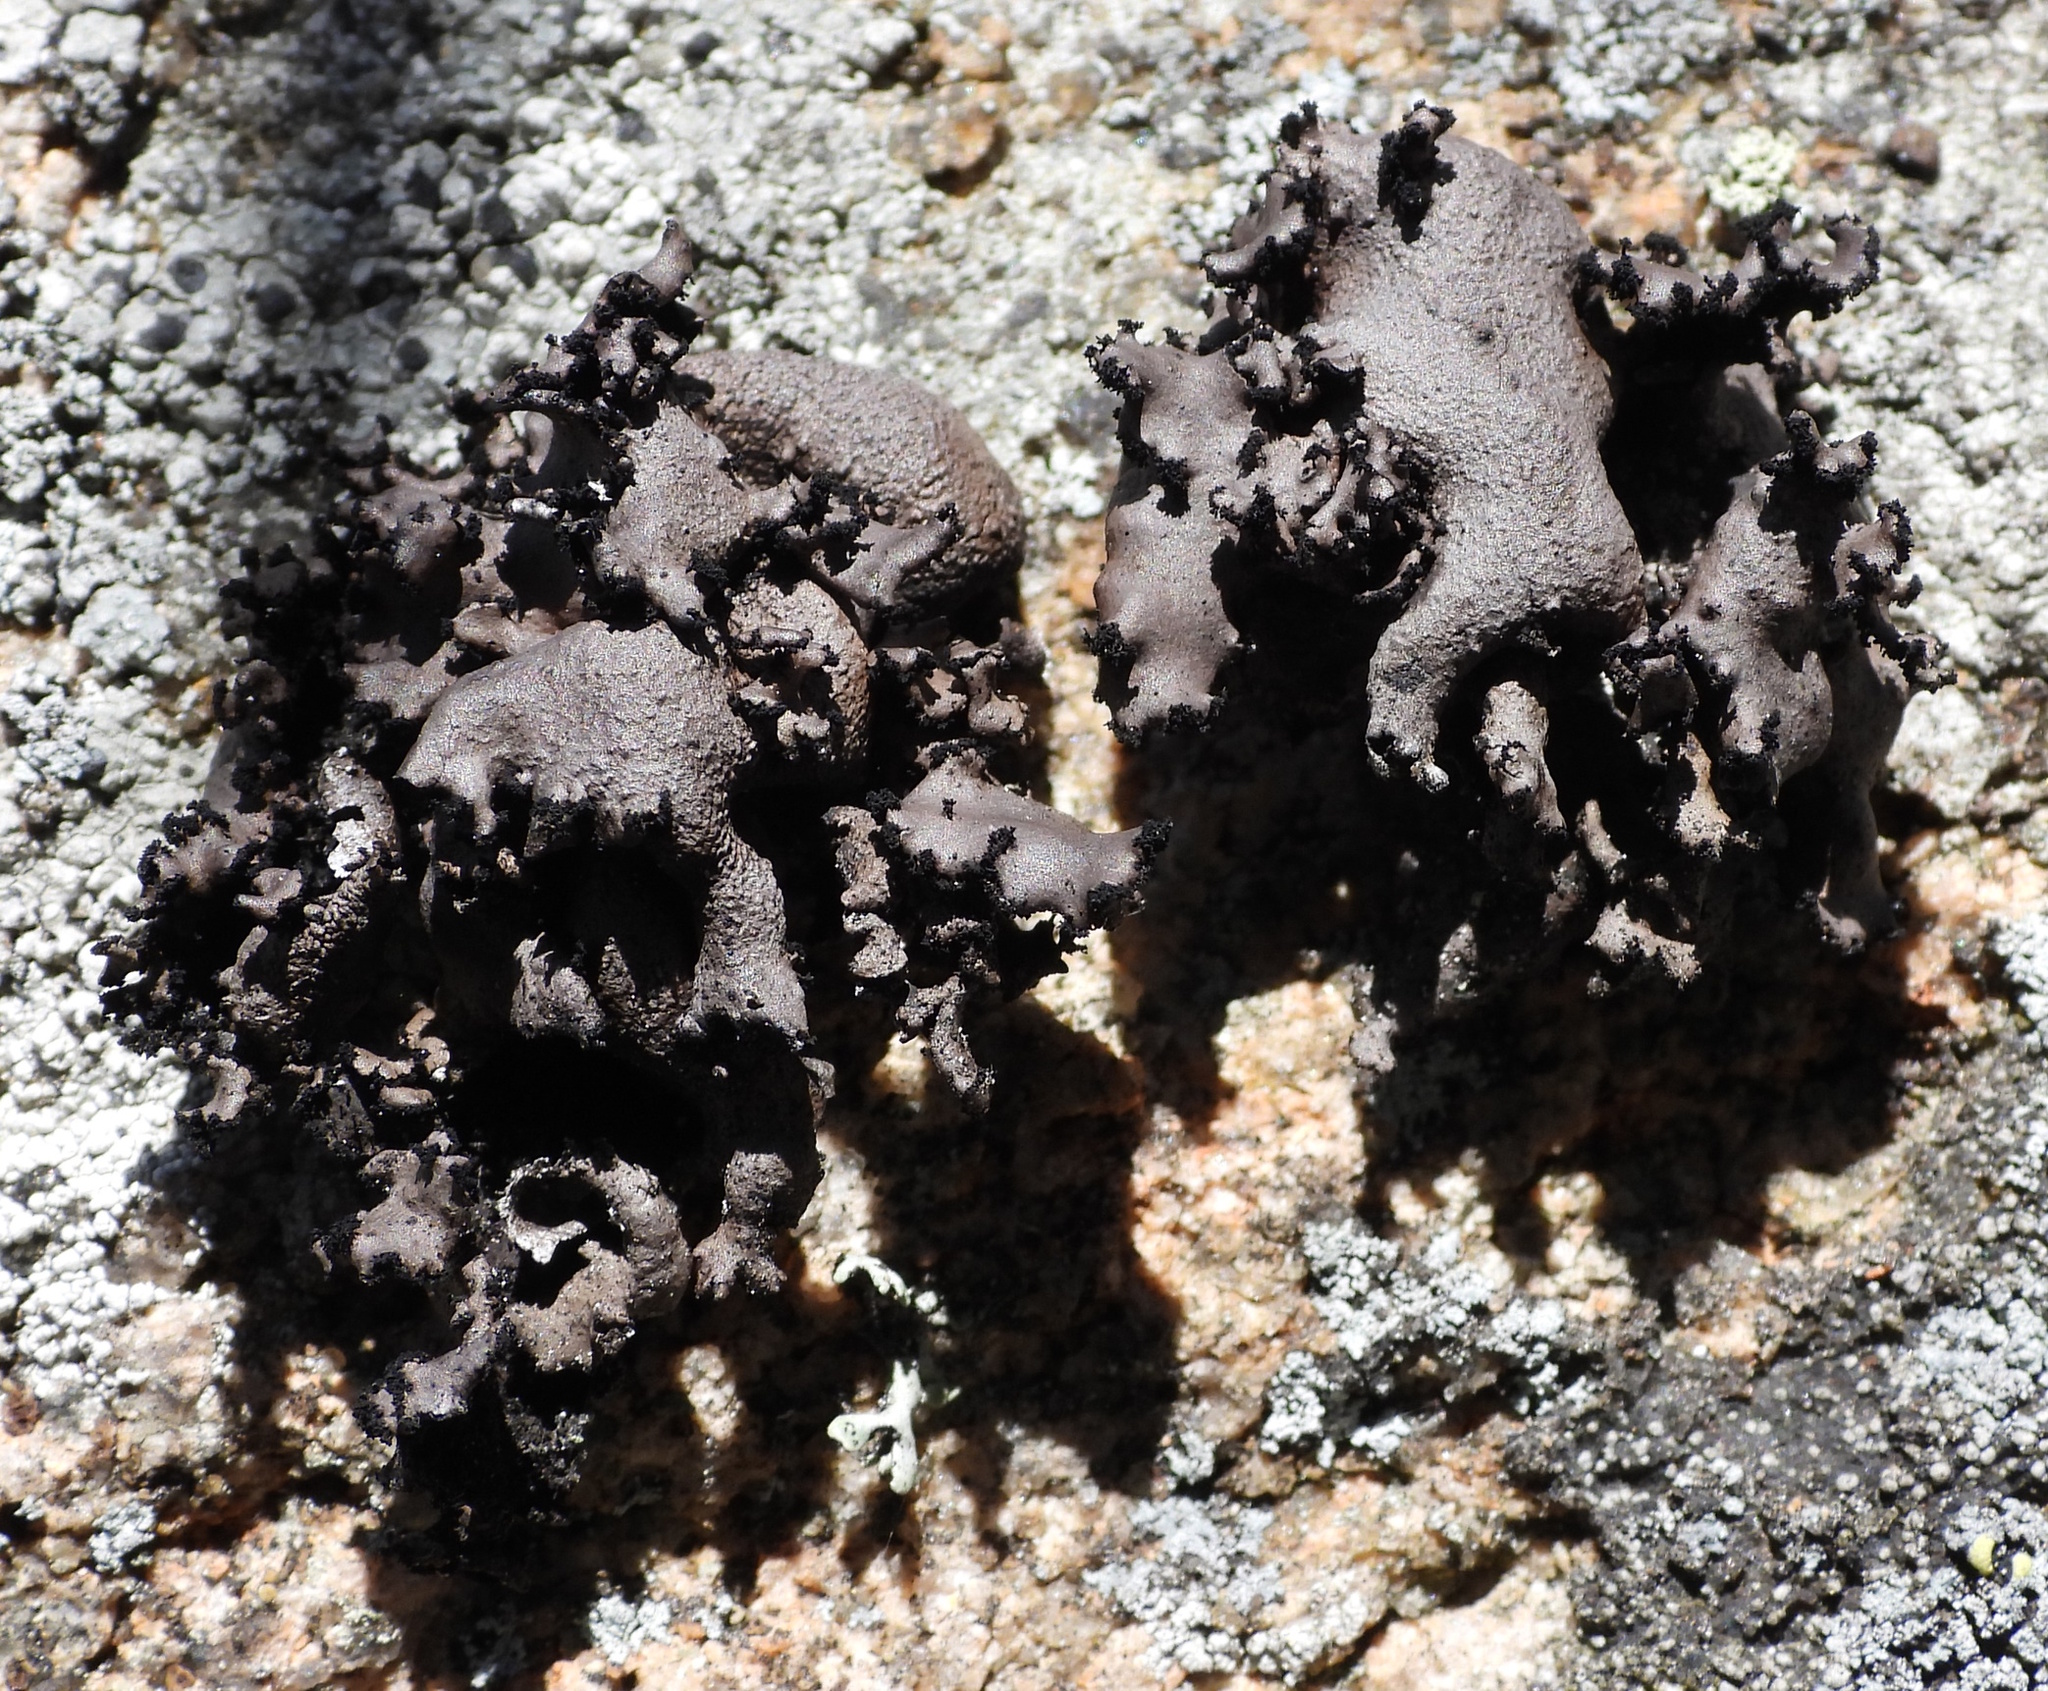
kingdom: Fungi
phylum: Ascomycota
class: Lecanoromycetes
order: Umbilicariales
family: Umbilicariaceae
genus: Umbilicaria
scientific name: Umbilicaria polyrrhiza
